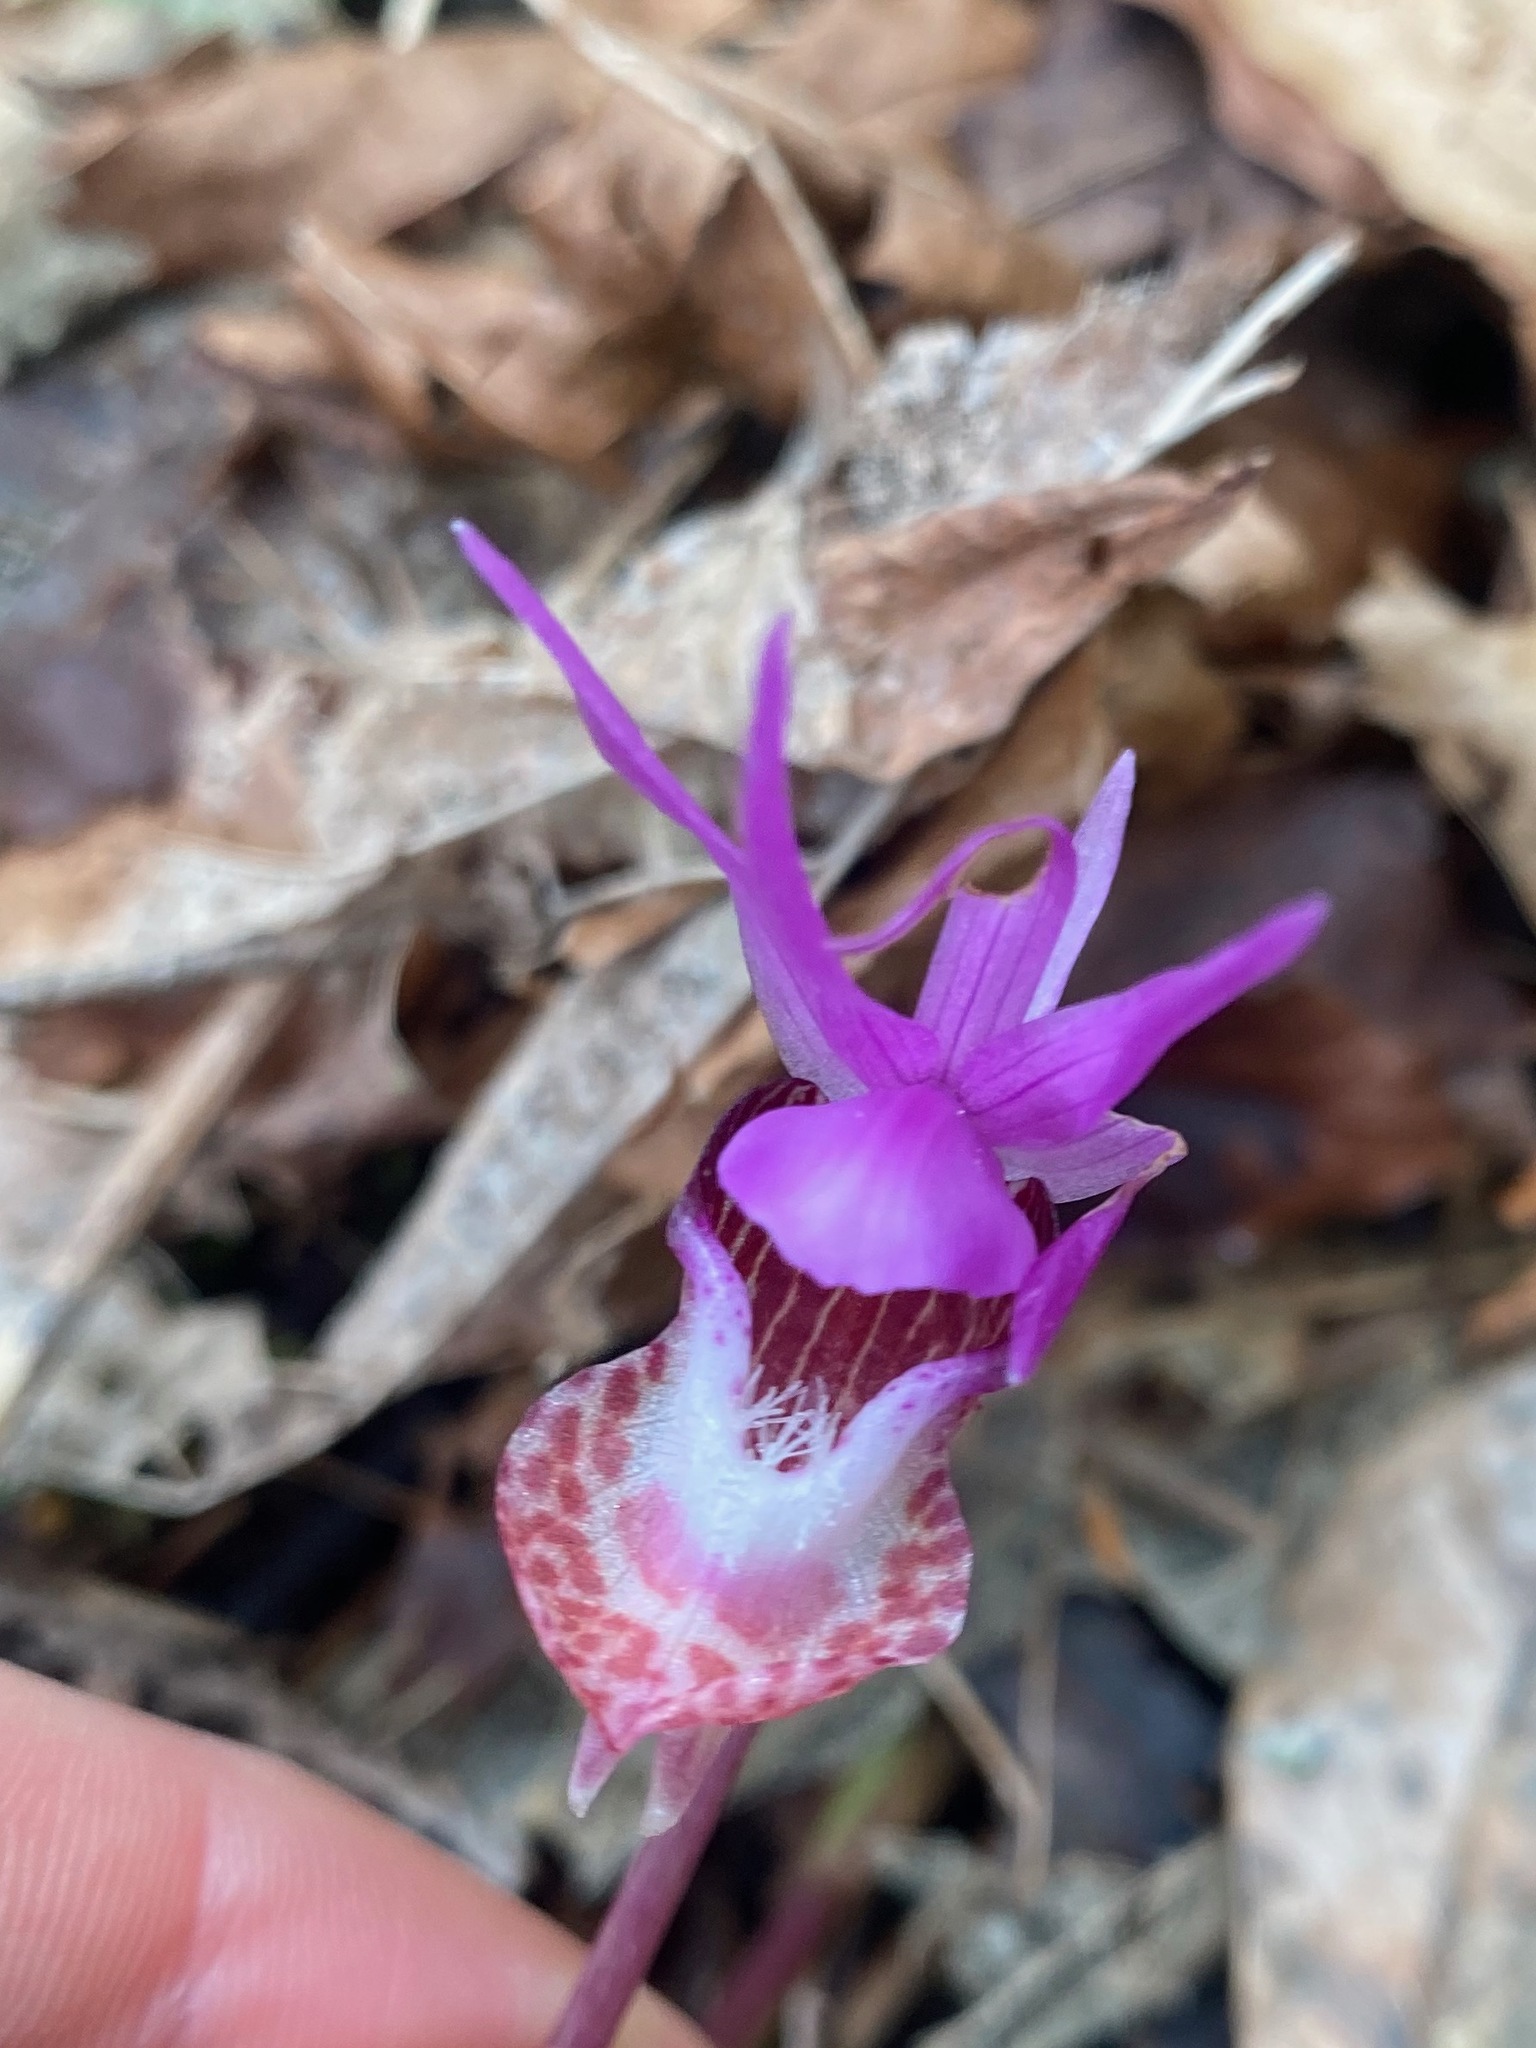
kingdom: Plantae
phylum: Tracheophyta
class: Liliopsida
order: Asparagales
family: Orchidaceae
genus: Calypso
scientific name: Calypso bulbosa
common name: Calypso
